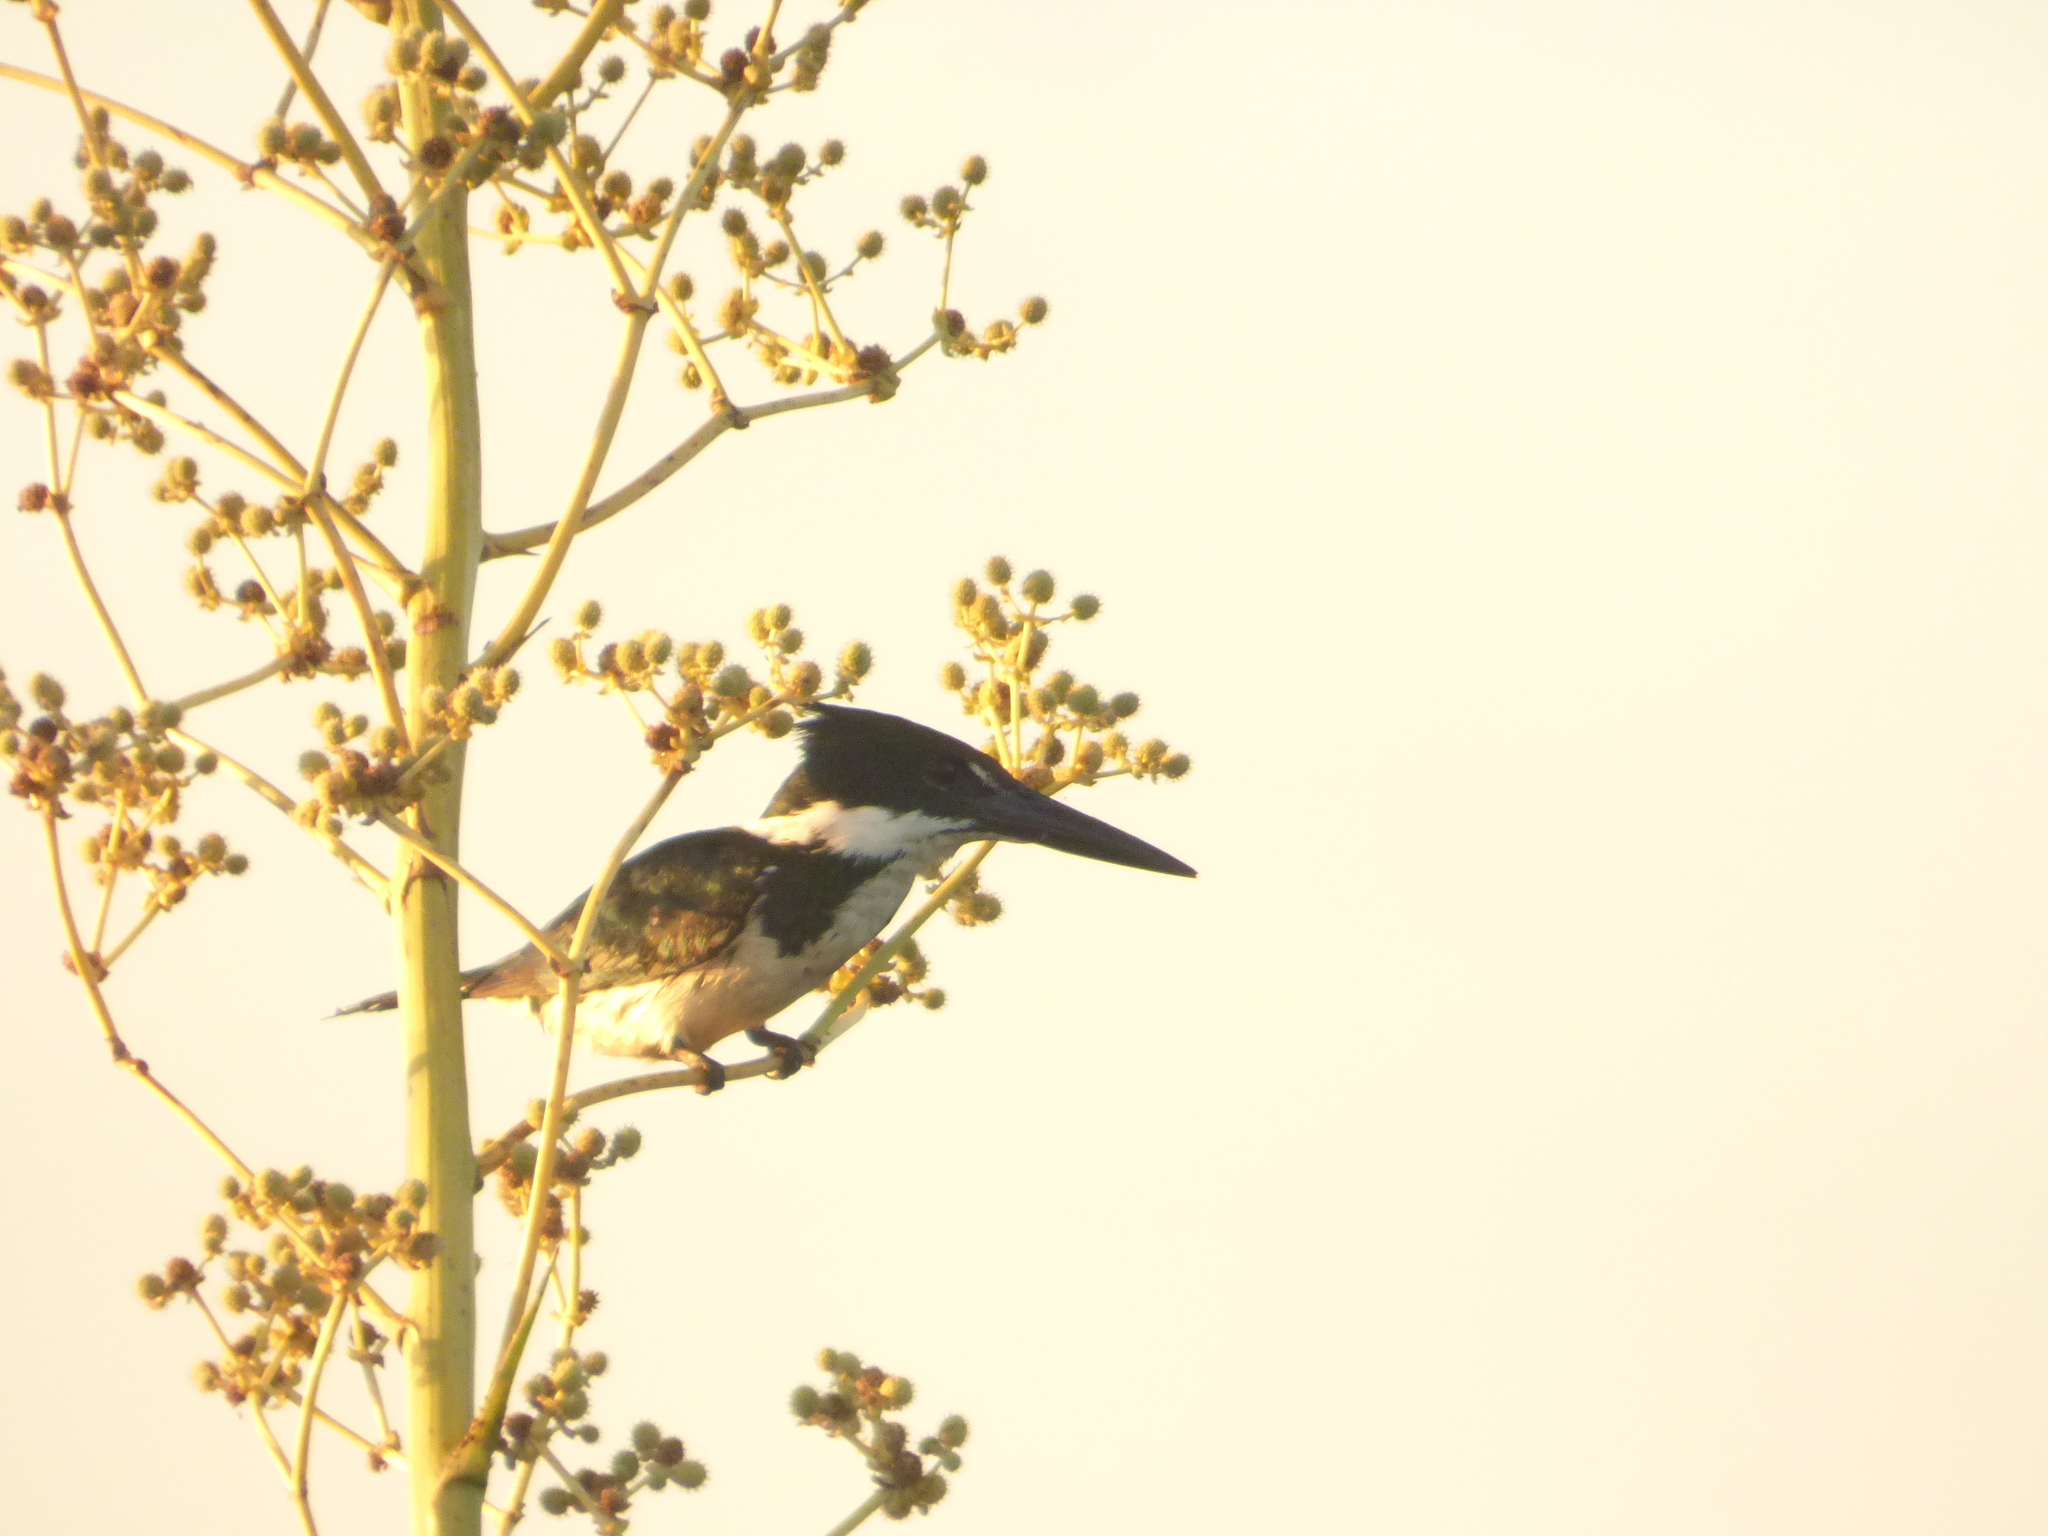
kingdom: Animalia
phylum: Chordata
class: Aves
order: Coraciiformes
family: Alcedinidae
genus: Chloroceryle
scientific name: Chloroceryle amazona
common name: Amazon kingfisher
